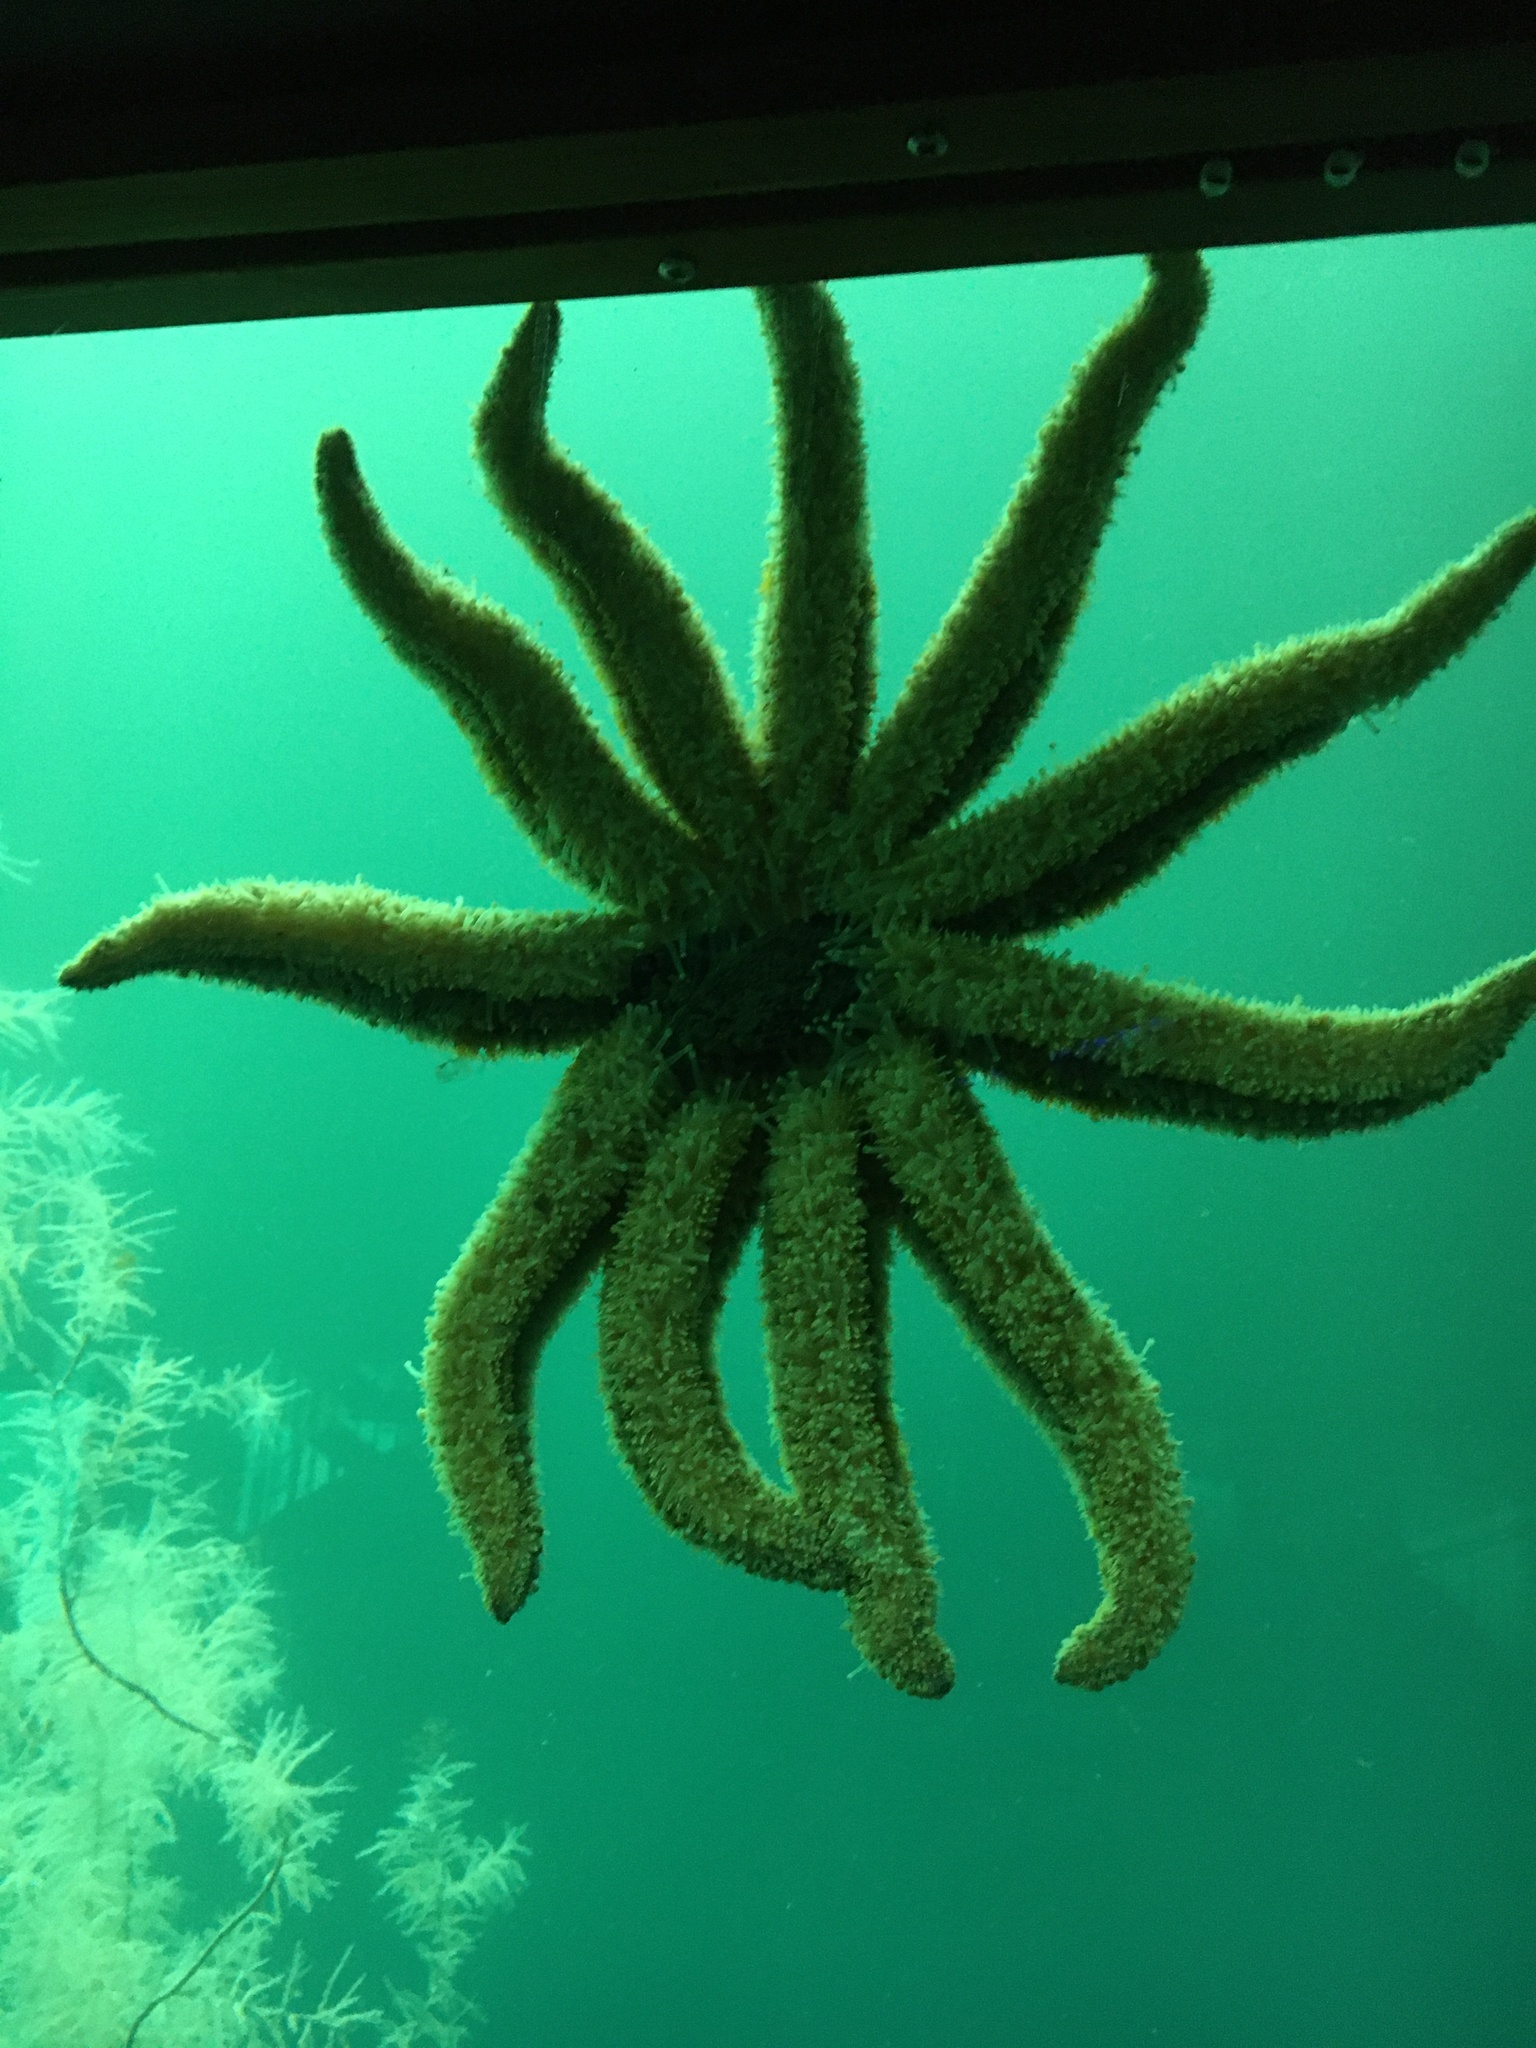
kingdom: Animalia
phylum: Echinodermata
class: Asteroidea
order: Forcipulatida
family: Asteriidae
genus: Coscinasterias
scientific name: Coscinasterias muricata
